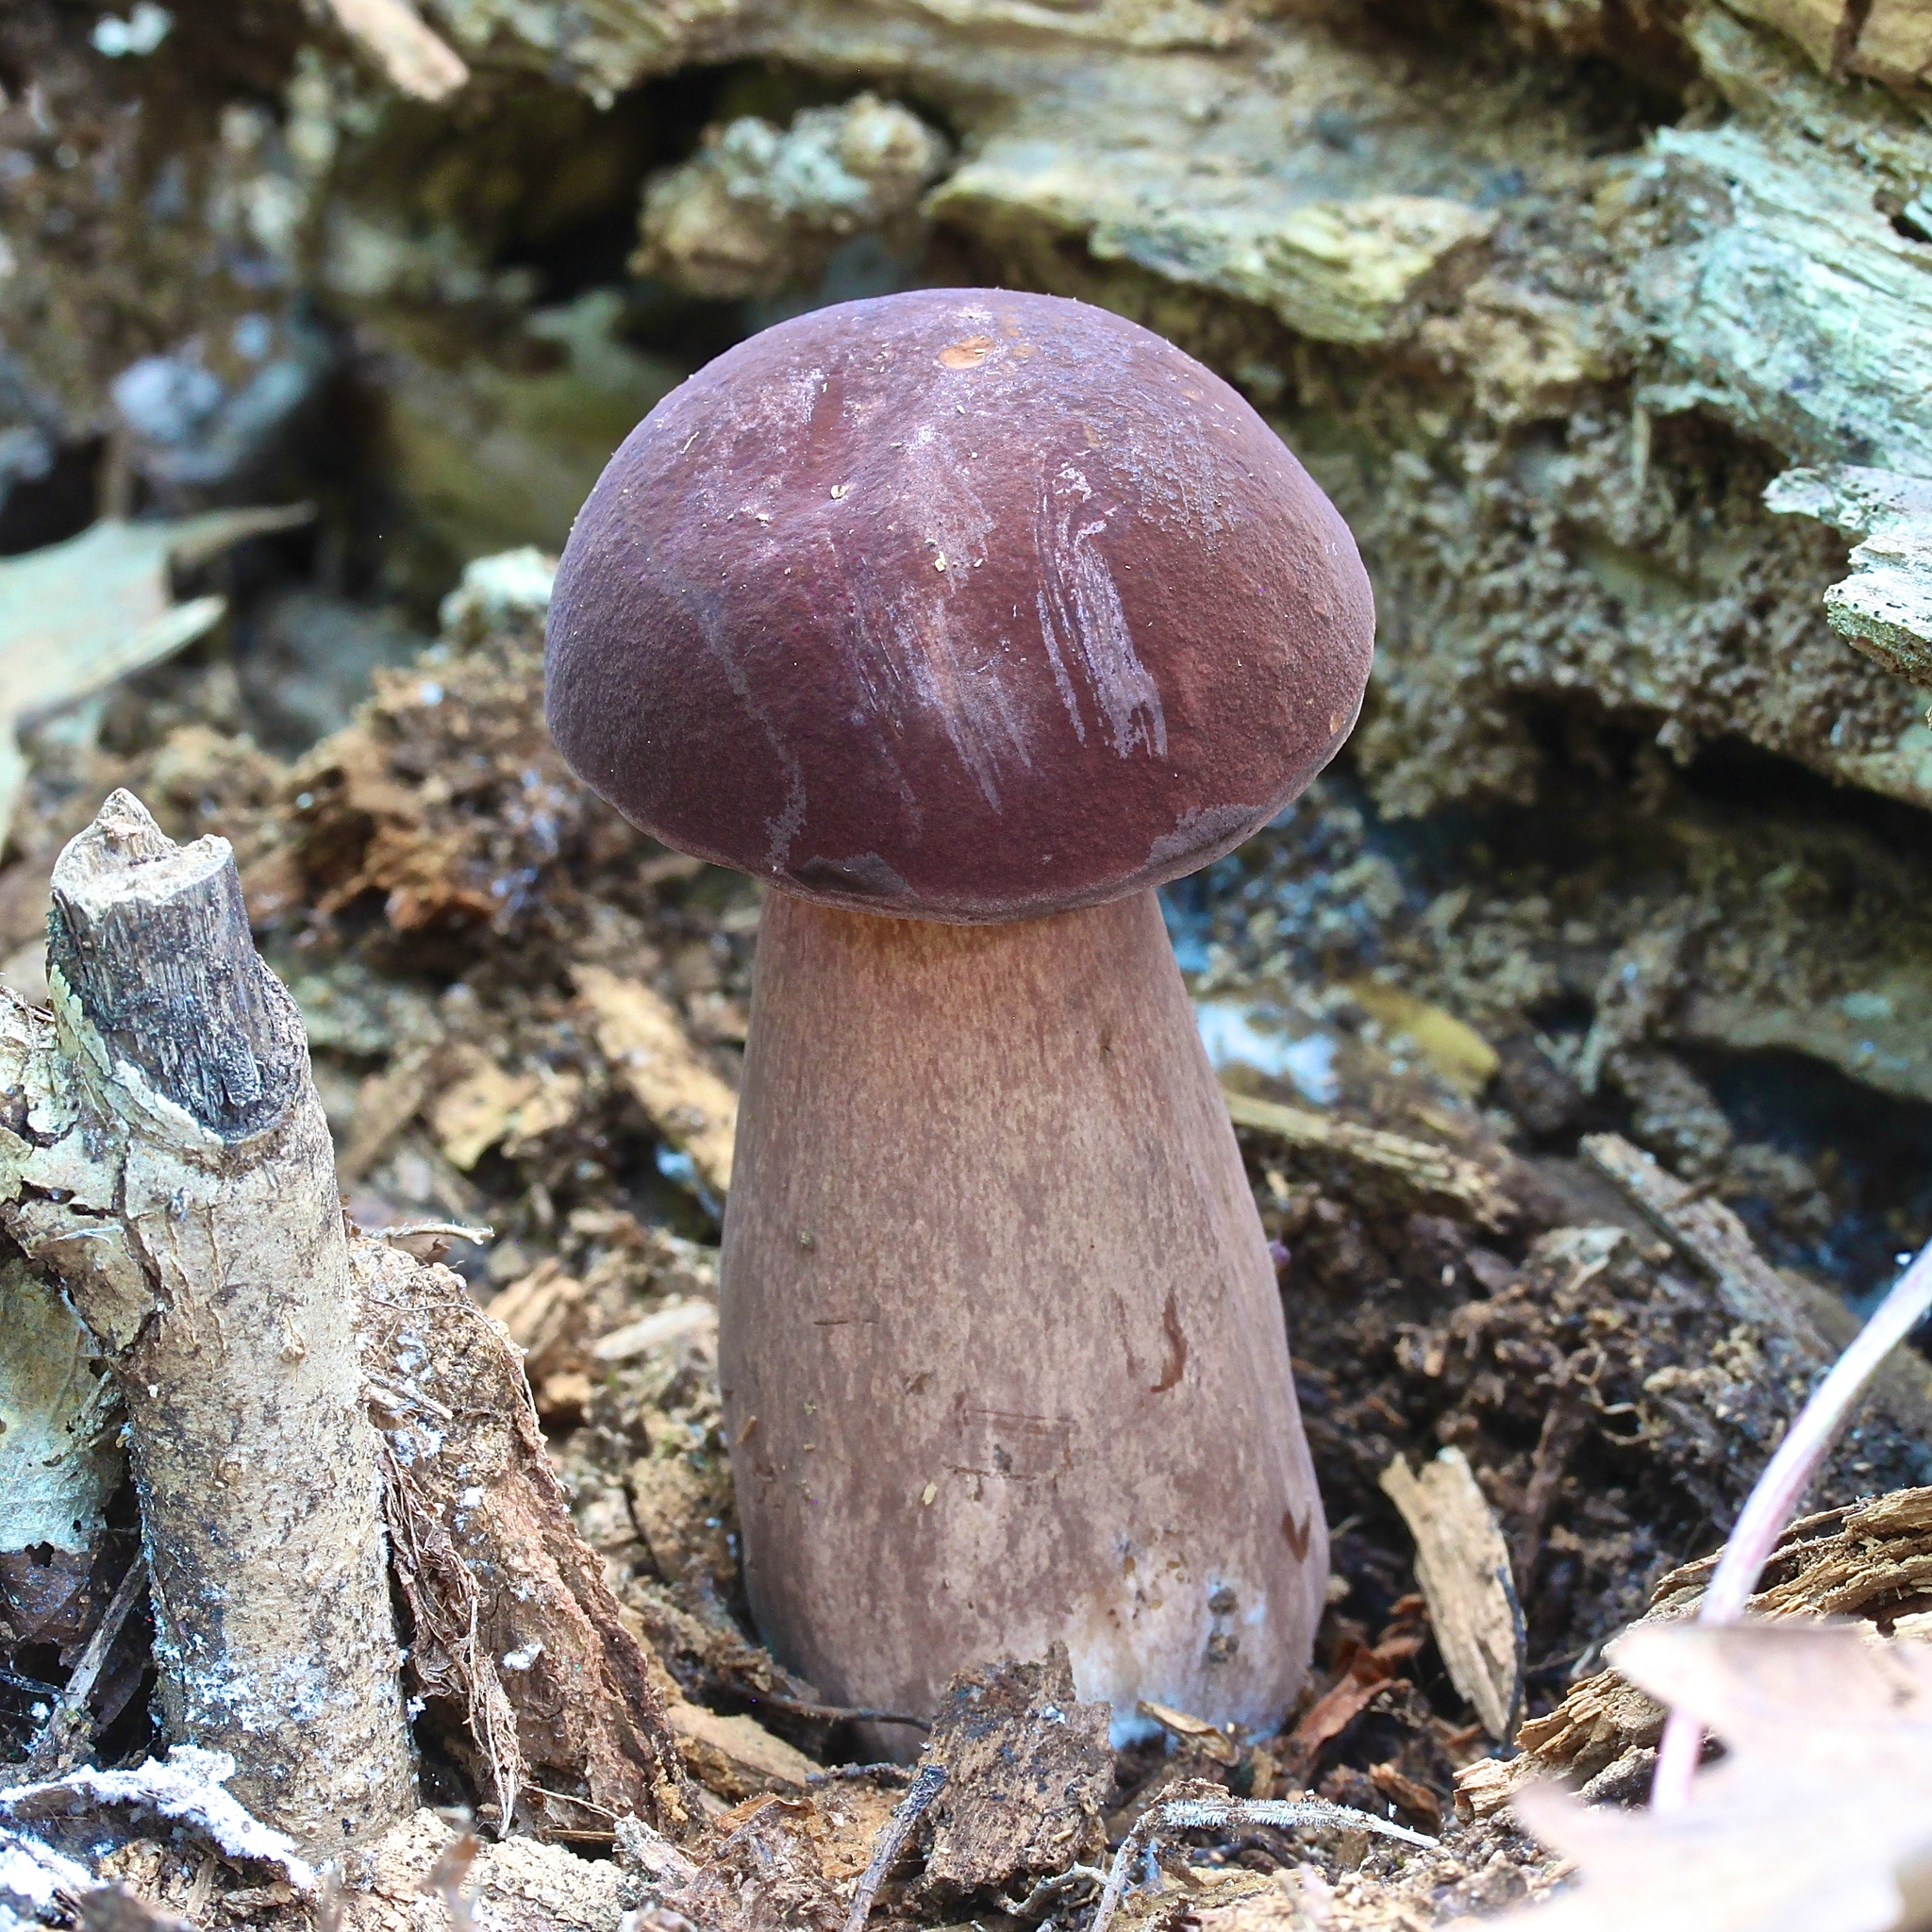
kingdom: Fungi
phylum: Basidiomycota
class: Agaricomycetes
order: Boletales
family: Boletaceae
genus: Tylopilus
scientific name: Tylopilus rubrobrunneus
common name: Reddish brown bitter bolete
